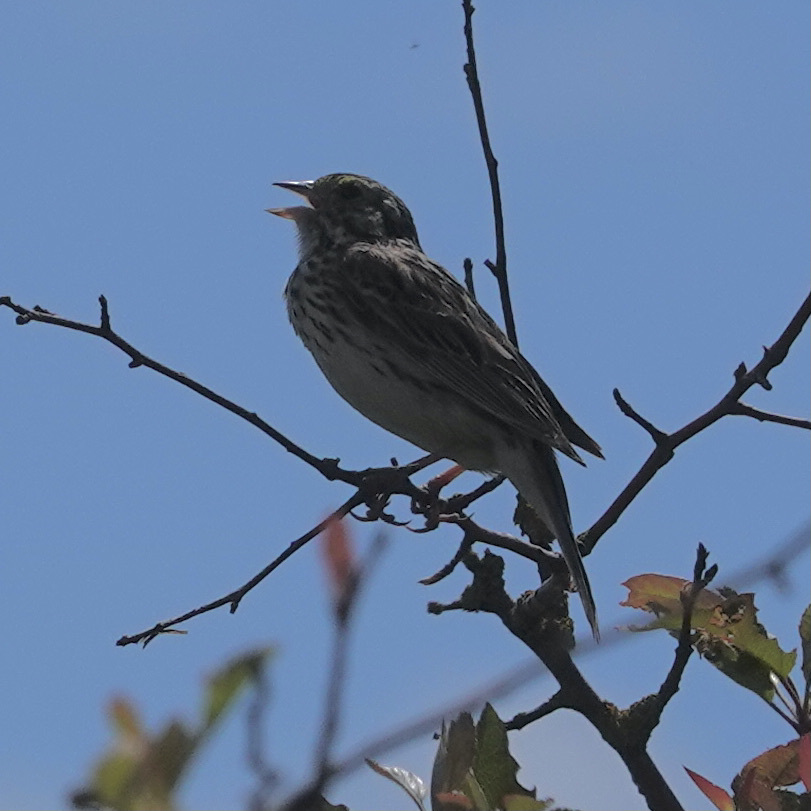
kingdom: Animalia
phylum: Chordata
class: Aves
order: Passeriformes
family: Passerellidae
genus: Melospiza
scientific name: Melospiza melodia
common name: Song sparrow
